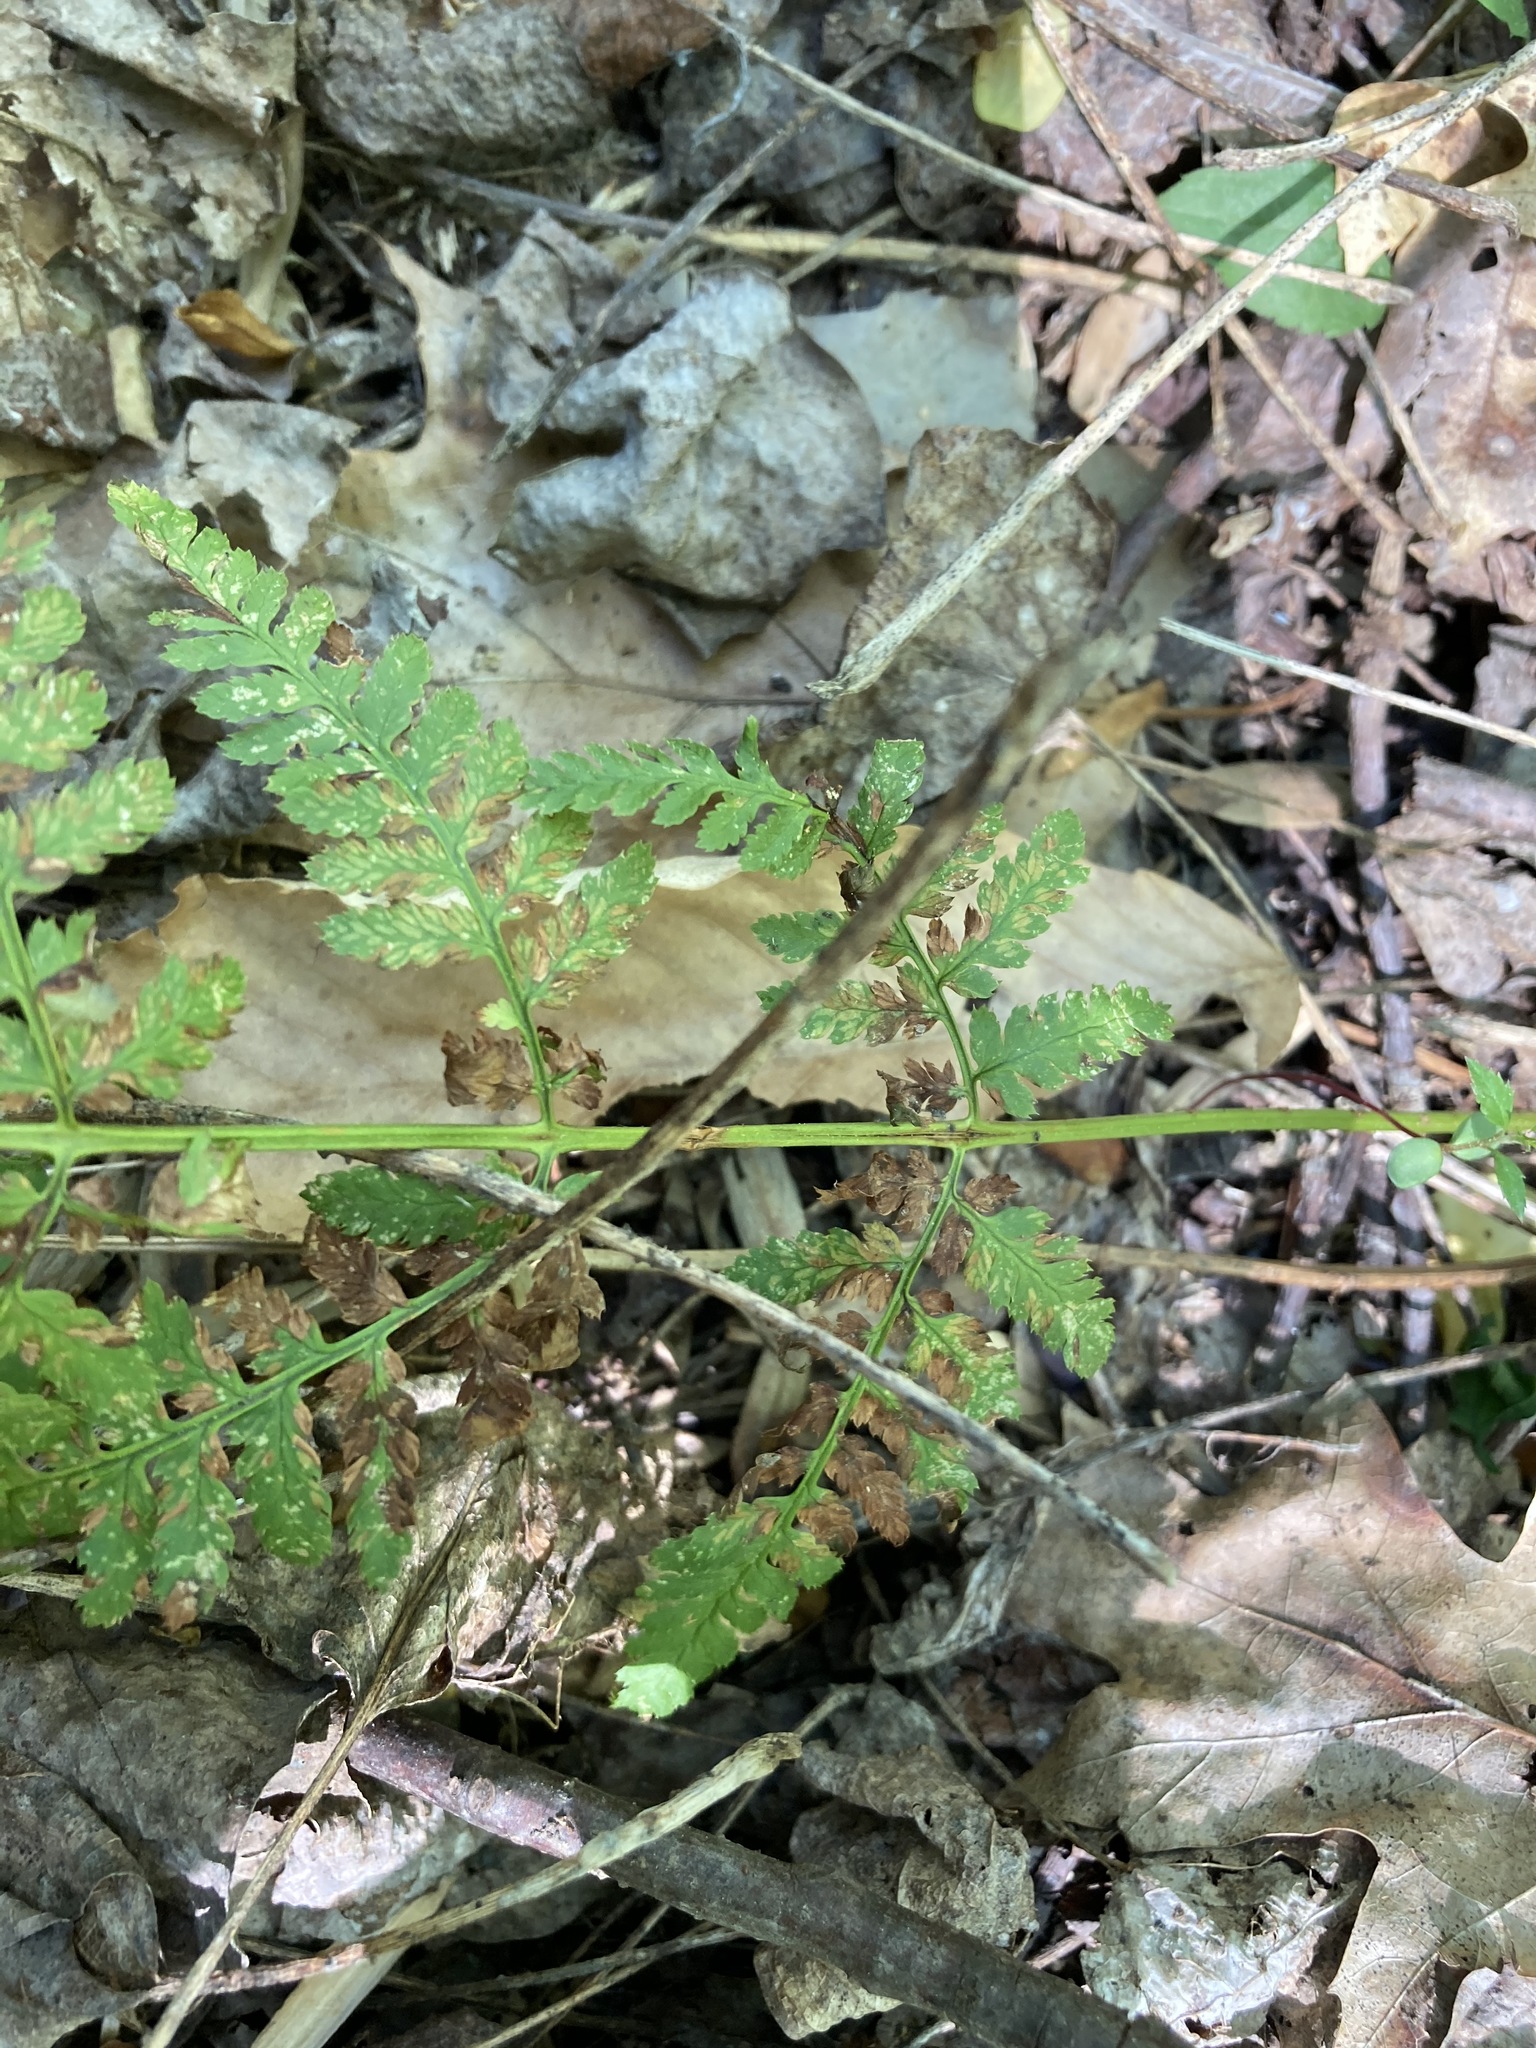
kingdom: Plantae
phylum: Tracheophyta
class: Polypodiopsida
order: Polypodiales
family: Dryopteridaceae
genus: Dryopteris
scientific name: Dryopteris carthusiana
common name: Narrow buckler-fern
